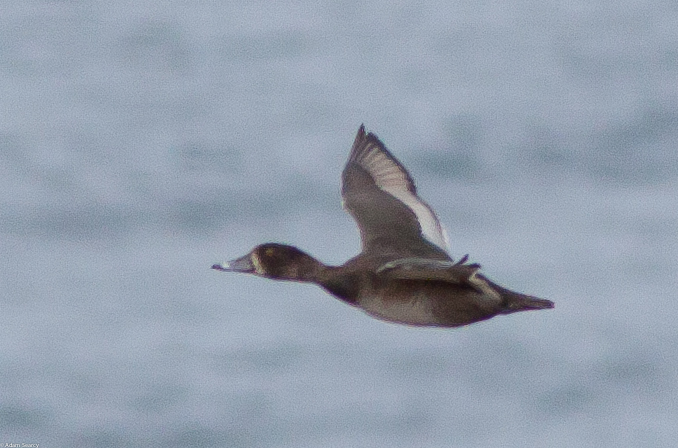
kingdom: Animalia
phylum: Chordata
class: Aves
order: Anseriformes
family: Anatidae
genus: Aythya
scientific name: Aythya collaris
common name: Ring-necked duck
